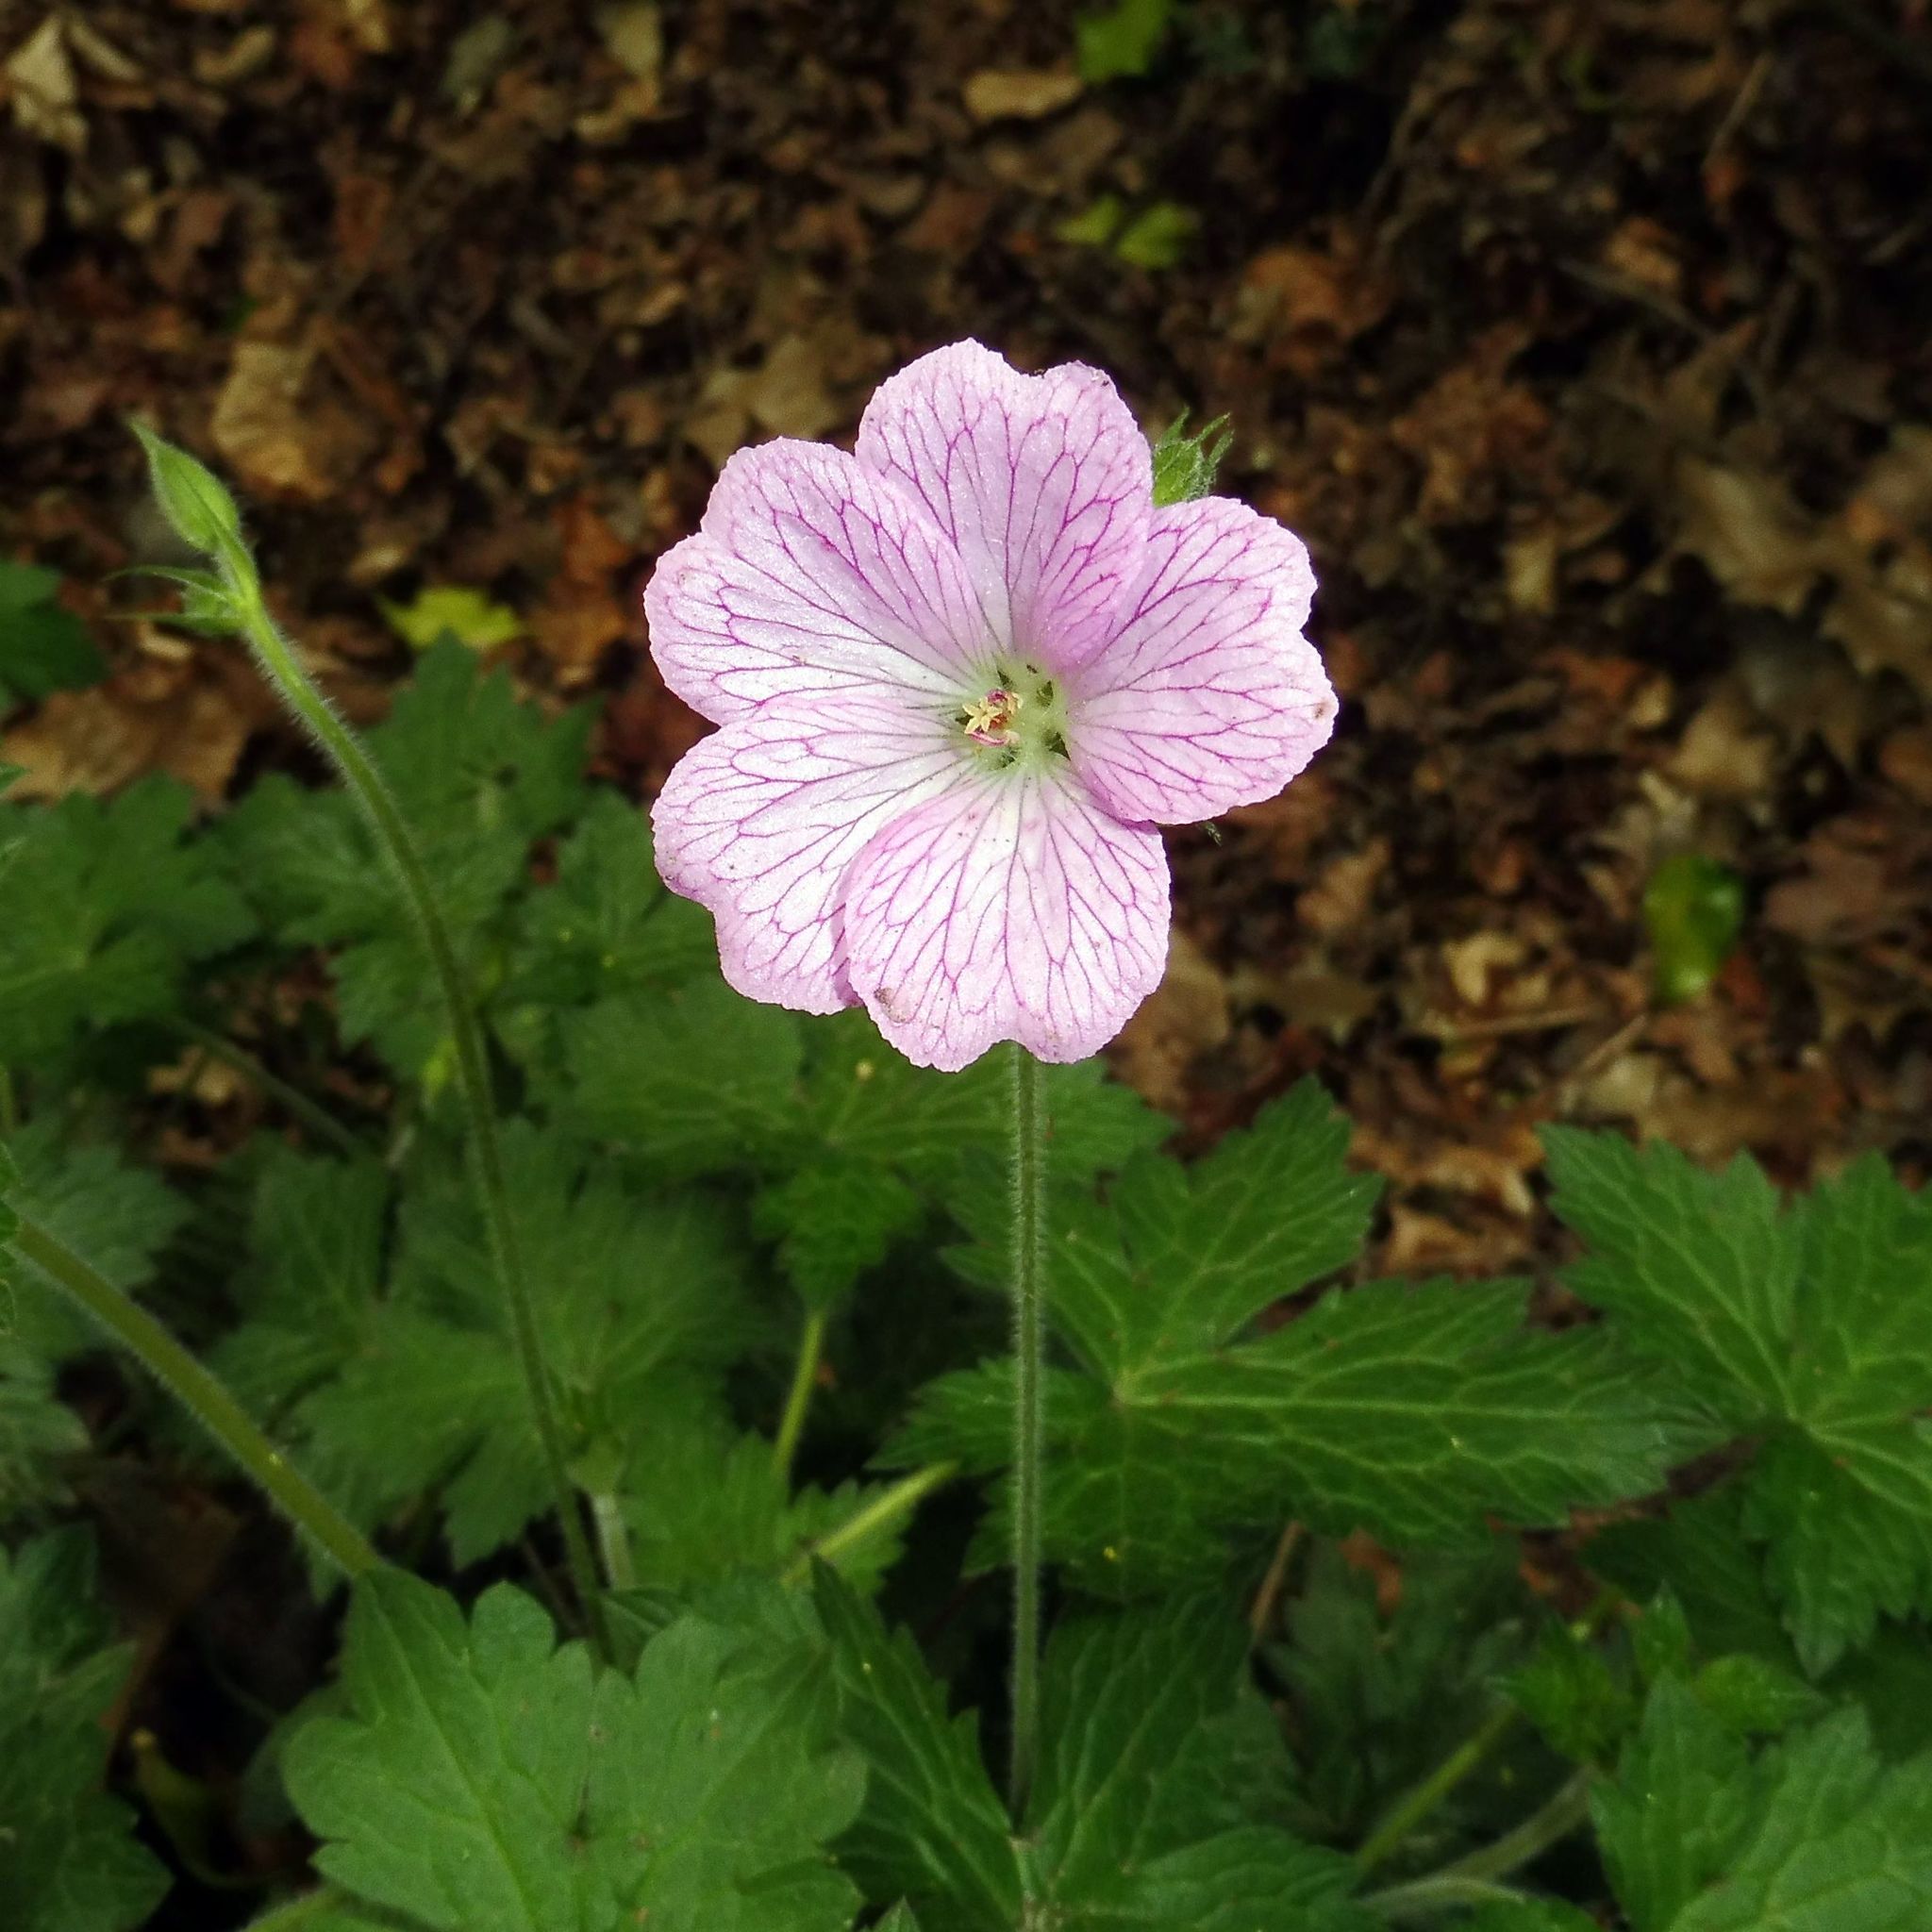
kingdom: Plantae
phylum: Tracheophyta
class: Magnoliopsida
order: Geraniales
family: Geraniaceae
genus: Geranium
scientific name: Geranium oxonianum
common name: Druce's crane's-bill
